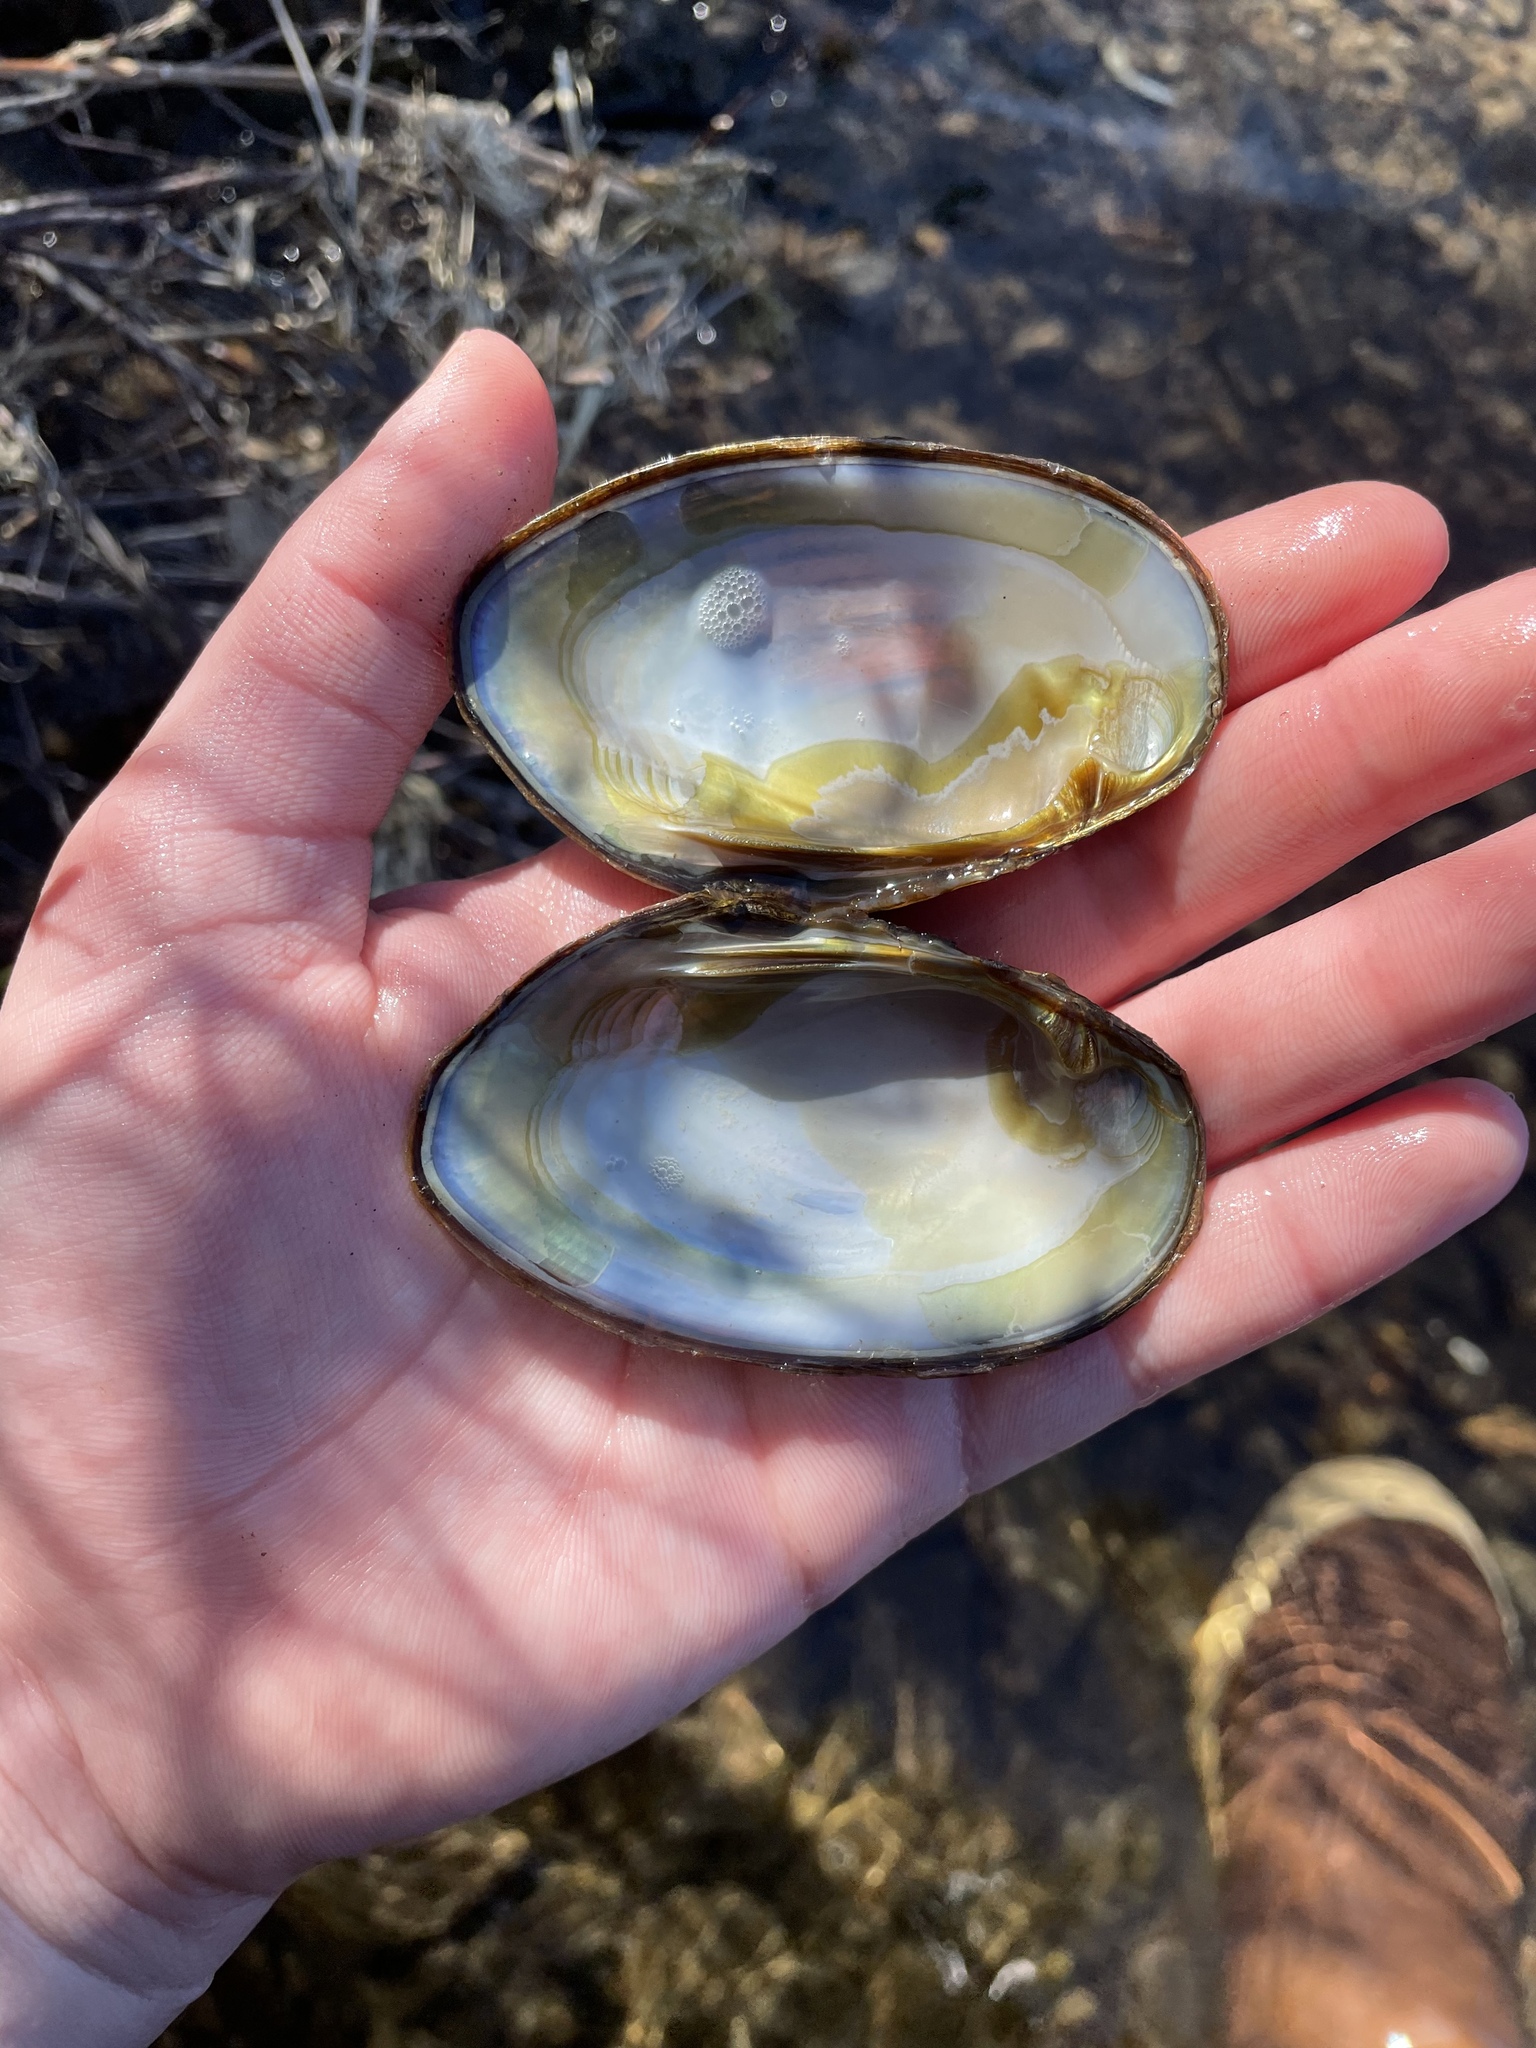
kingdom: Animalia
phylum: Mollusca
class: Bivalvia
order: Unionida
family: Unionidae
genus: Elliptio
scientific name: Elliptio complanata
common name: Eastern elliptio
